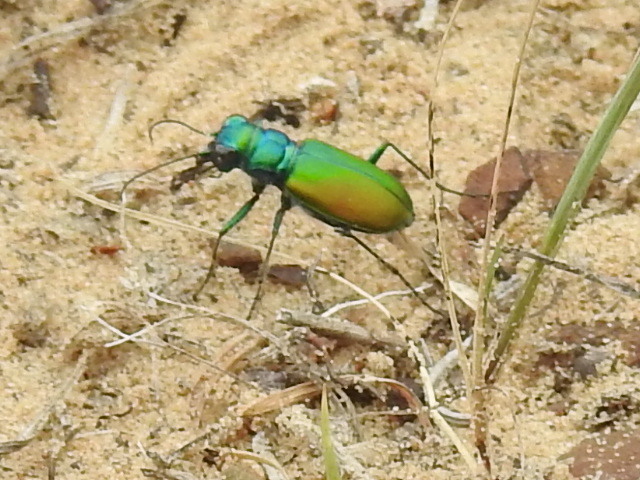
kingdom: Animalia
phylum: Arthropoda
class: Insecta
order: Coleoptera
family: Carabidae
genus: Cicindela
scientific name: Cicindela scutellaris
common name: Festive tiger beetle
